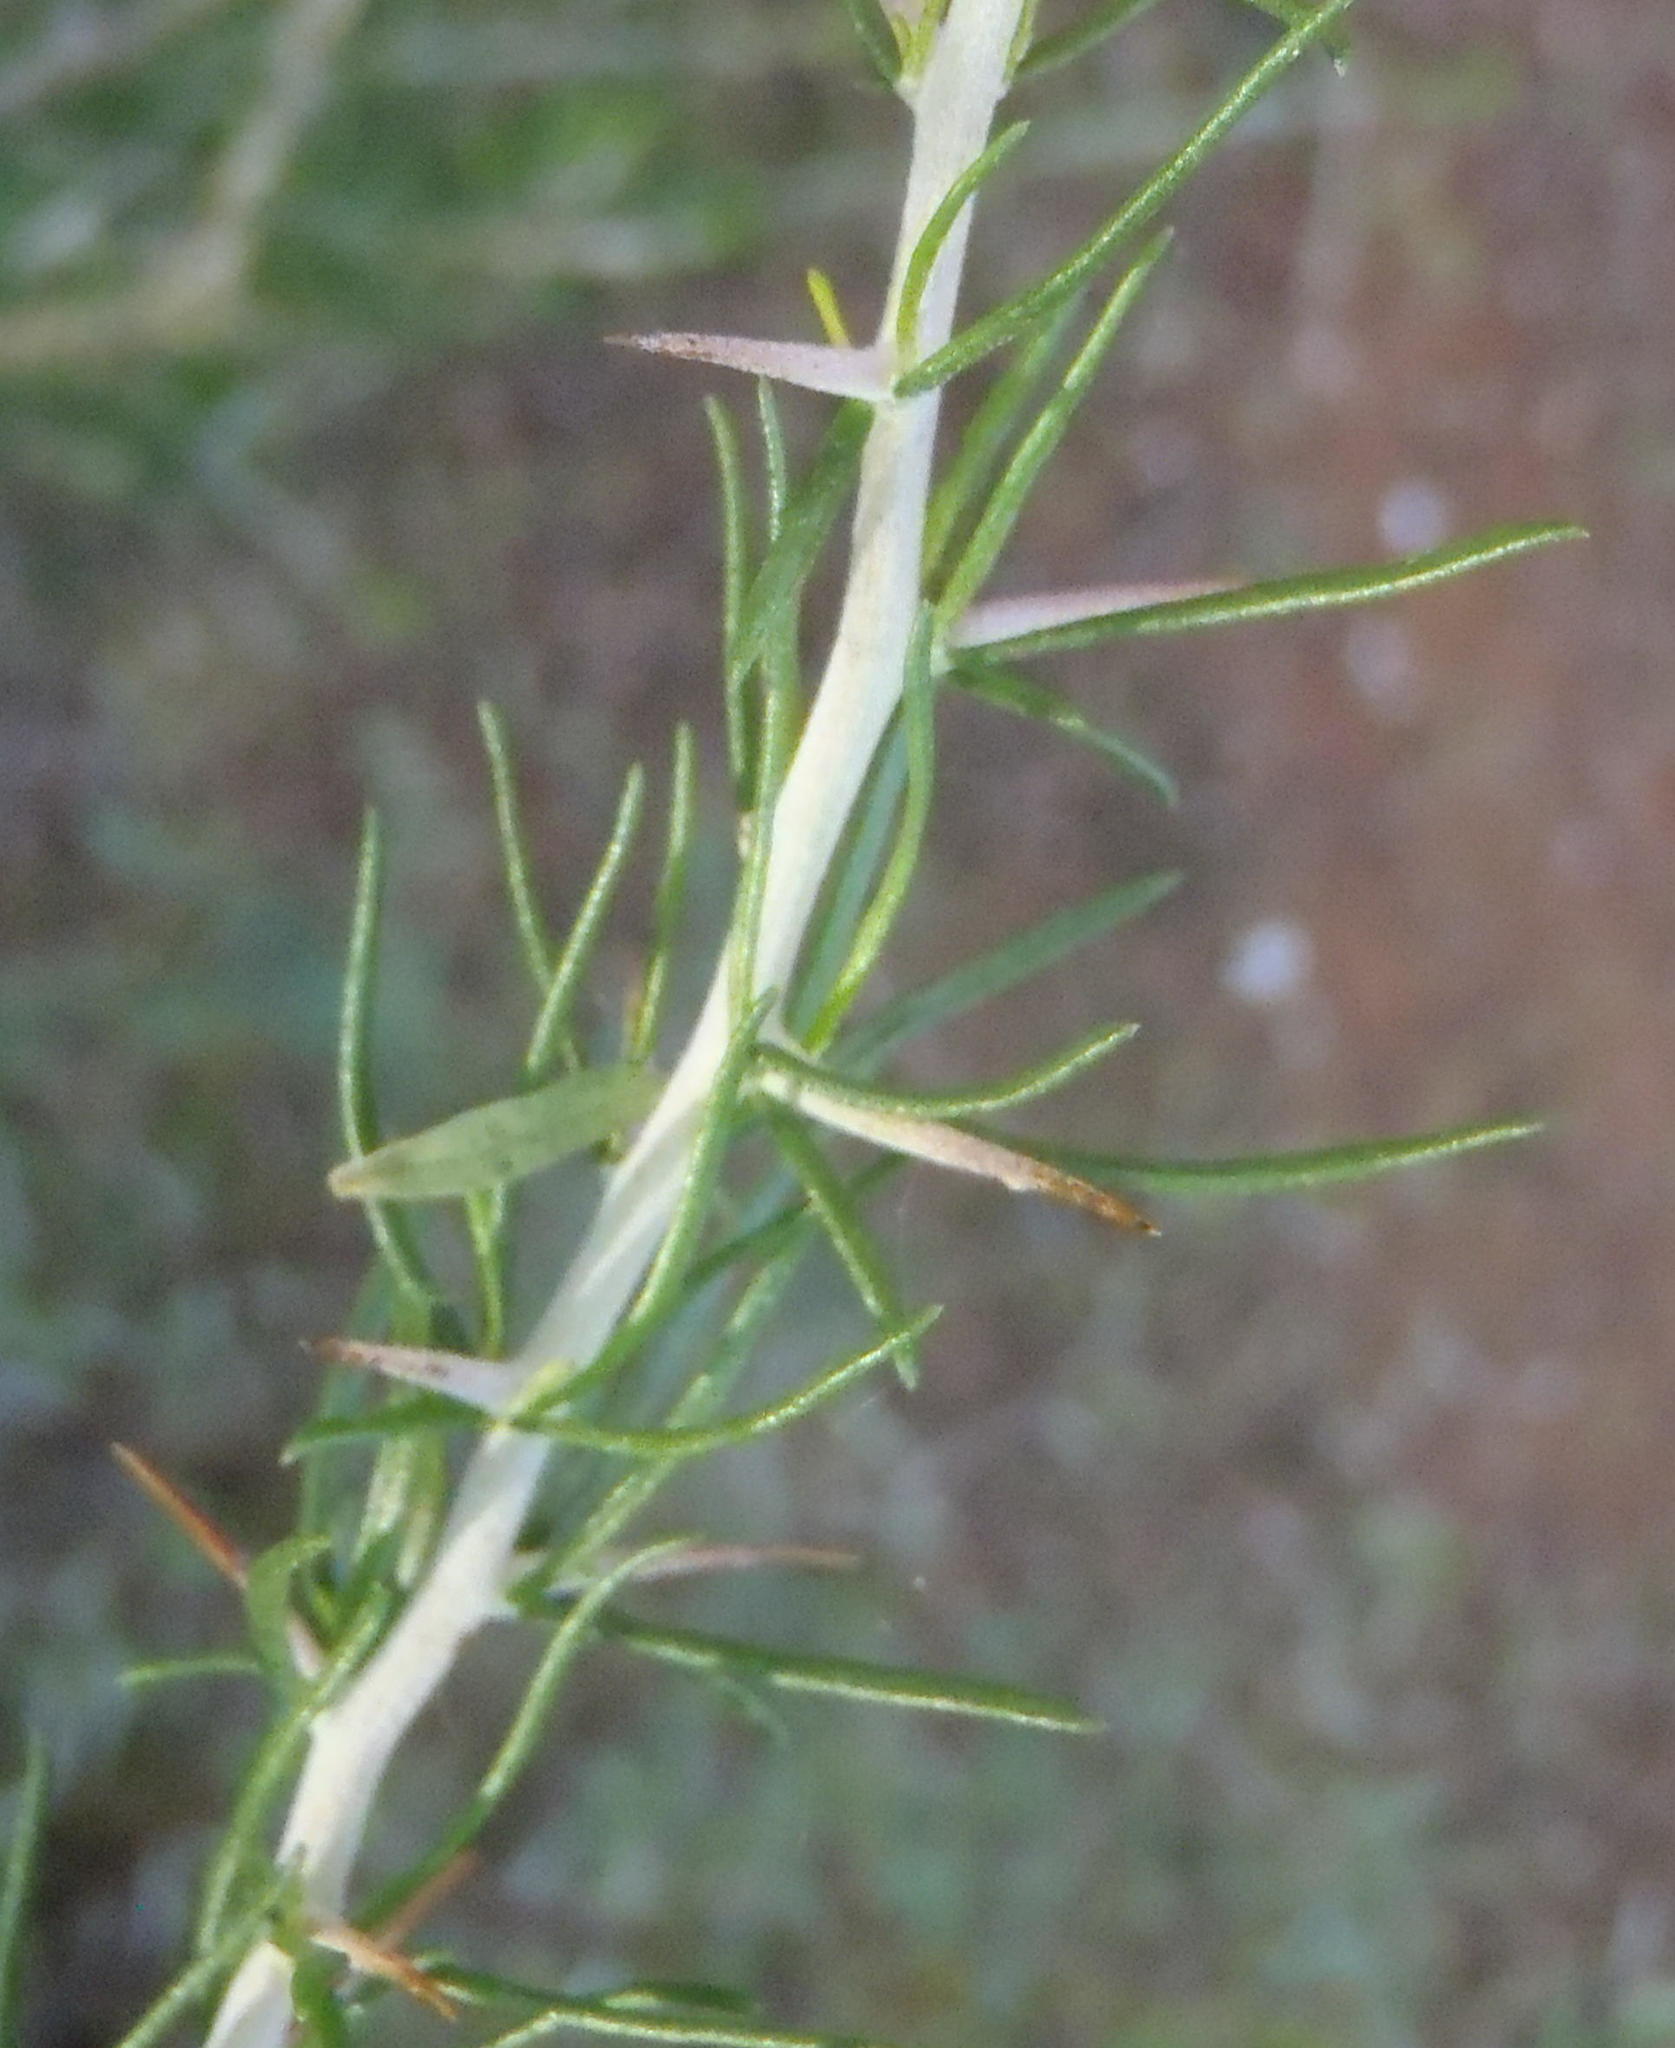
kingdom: Plantae
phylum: Tracheophyta
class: Magnoliopsida
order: Fabales
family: Fabaceae
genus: Aspalathus
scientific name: Aspalathus spinosa
